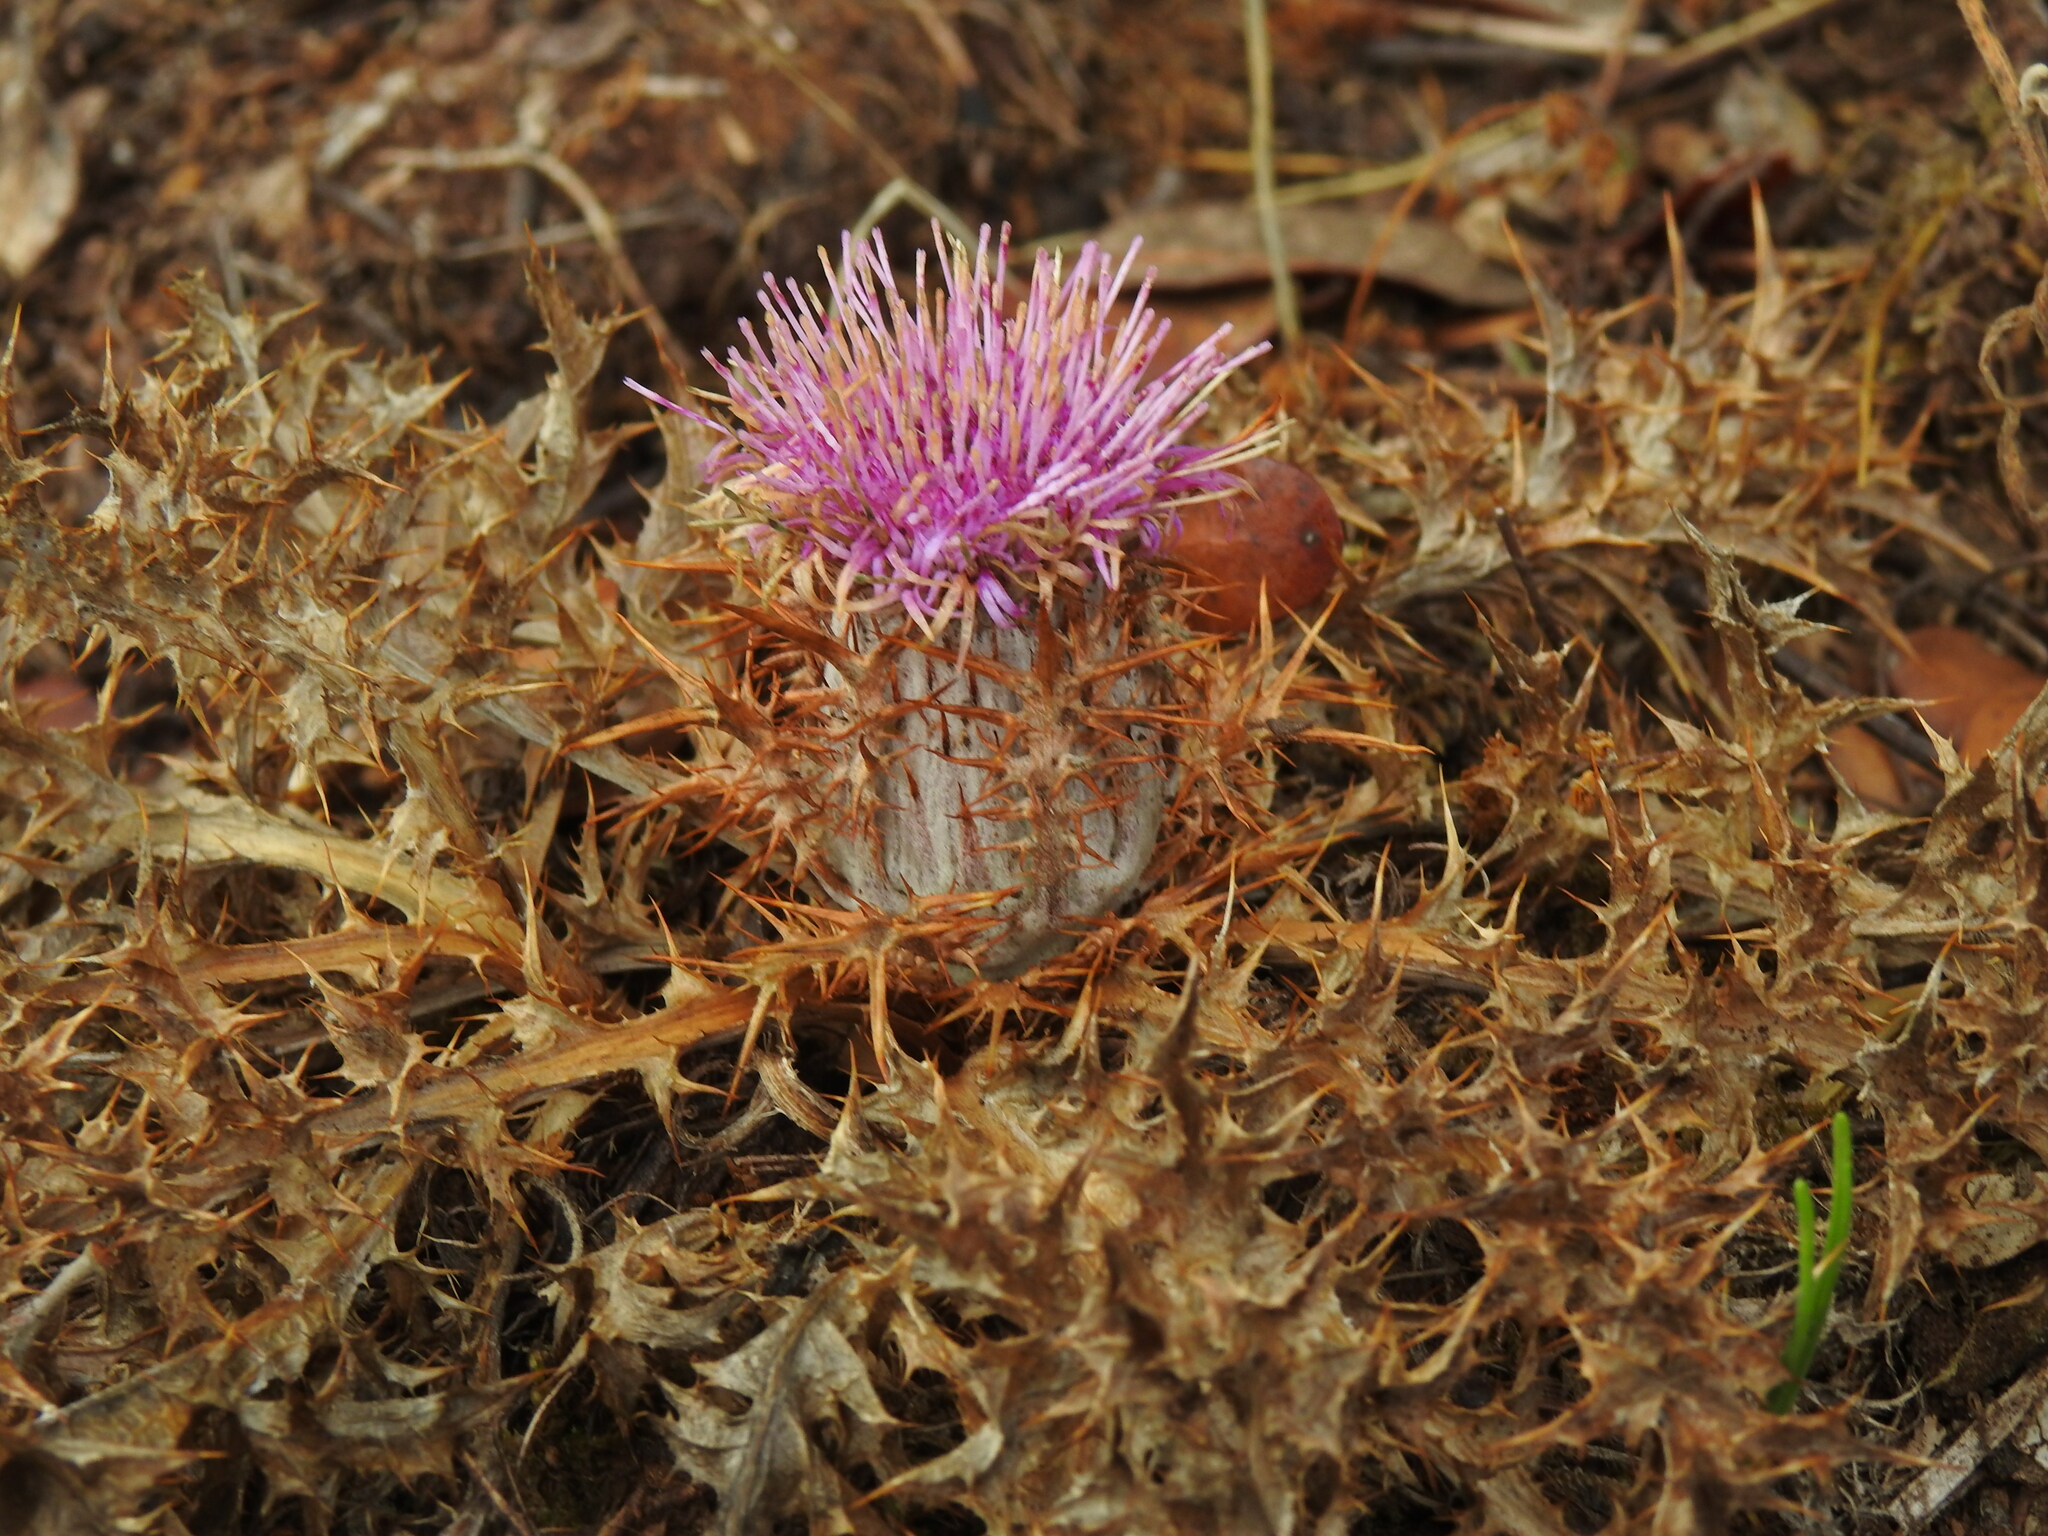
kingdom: Plantae
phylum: Tracheophyta
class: Magnoliopsida
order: Asterales
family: Asteraceae
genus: Chamaeleon
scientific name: Chamaeleon gummifer
